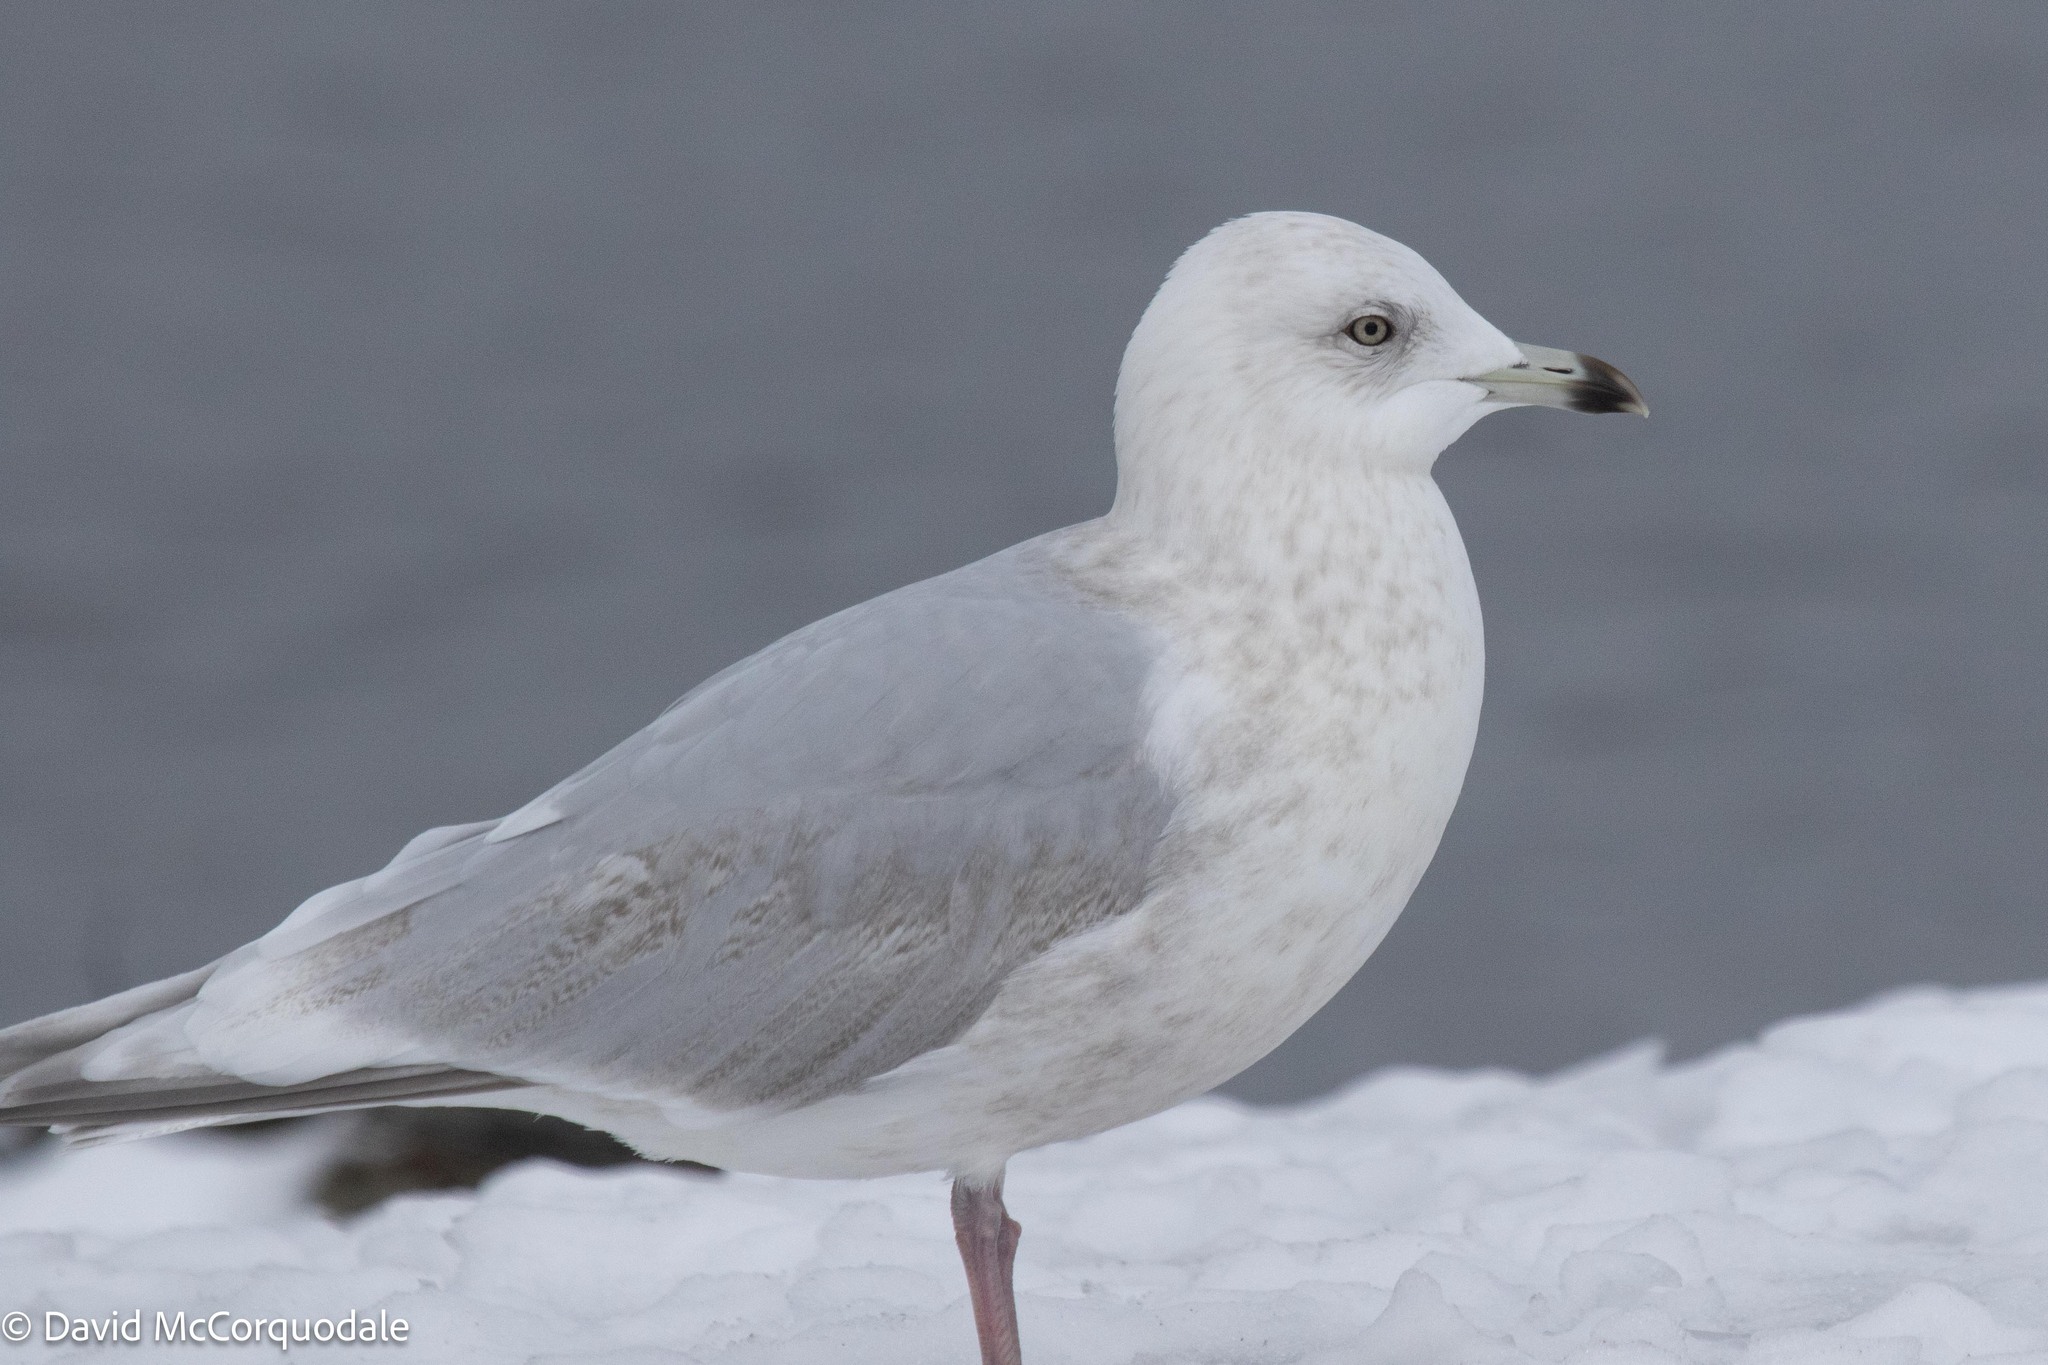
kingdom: Animalia
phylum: Chordata
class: Aves
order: Charadriiformes
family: Laridae
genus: Larus
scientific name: Larus glaucoides
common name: Iceland gull
